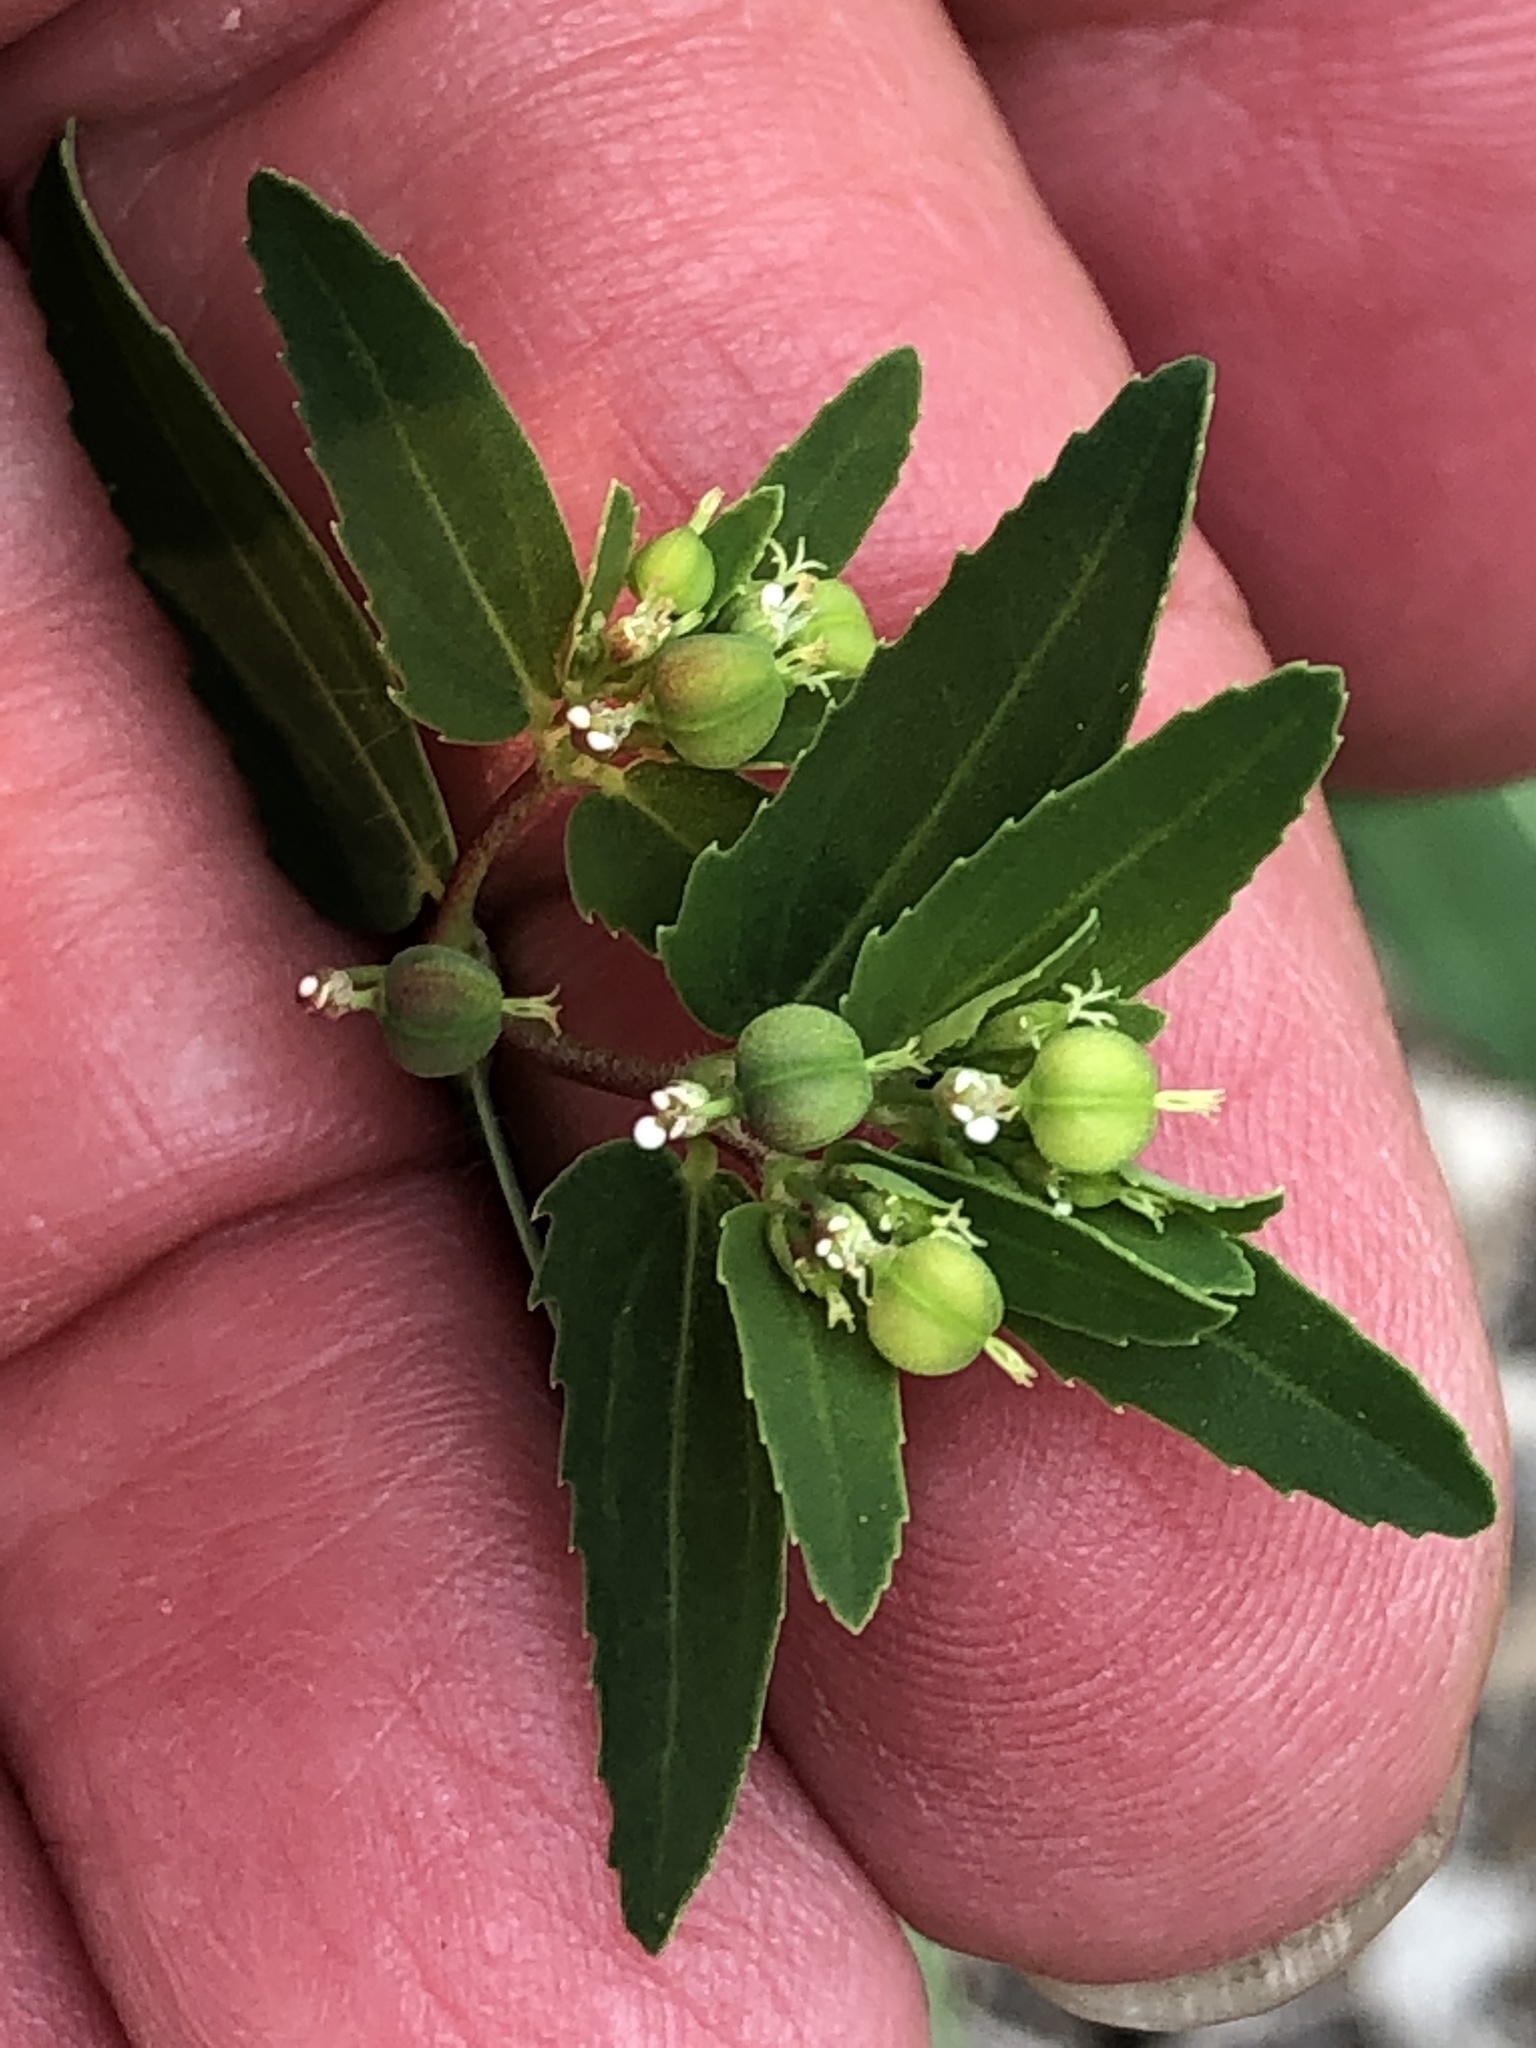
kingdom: Plantae
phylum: Tracheophyta
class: Magnoliopsida
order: Malpighiales
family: Euphorbiaceae
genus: Euphorbia
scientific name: Euphorbia nutans
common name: Eyebane
